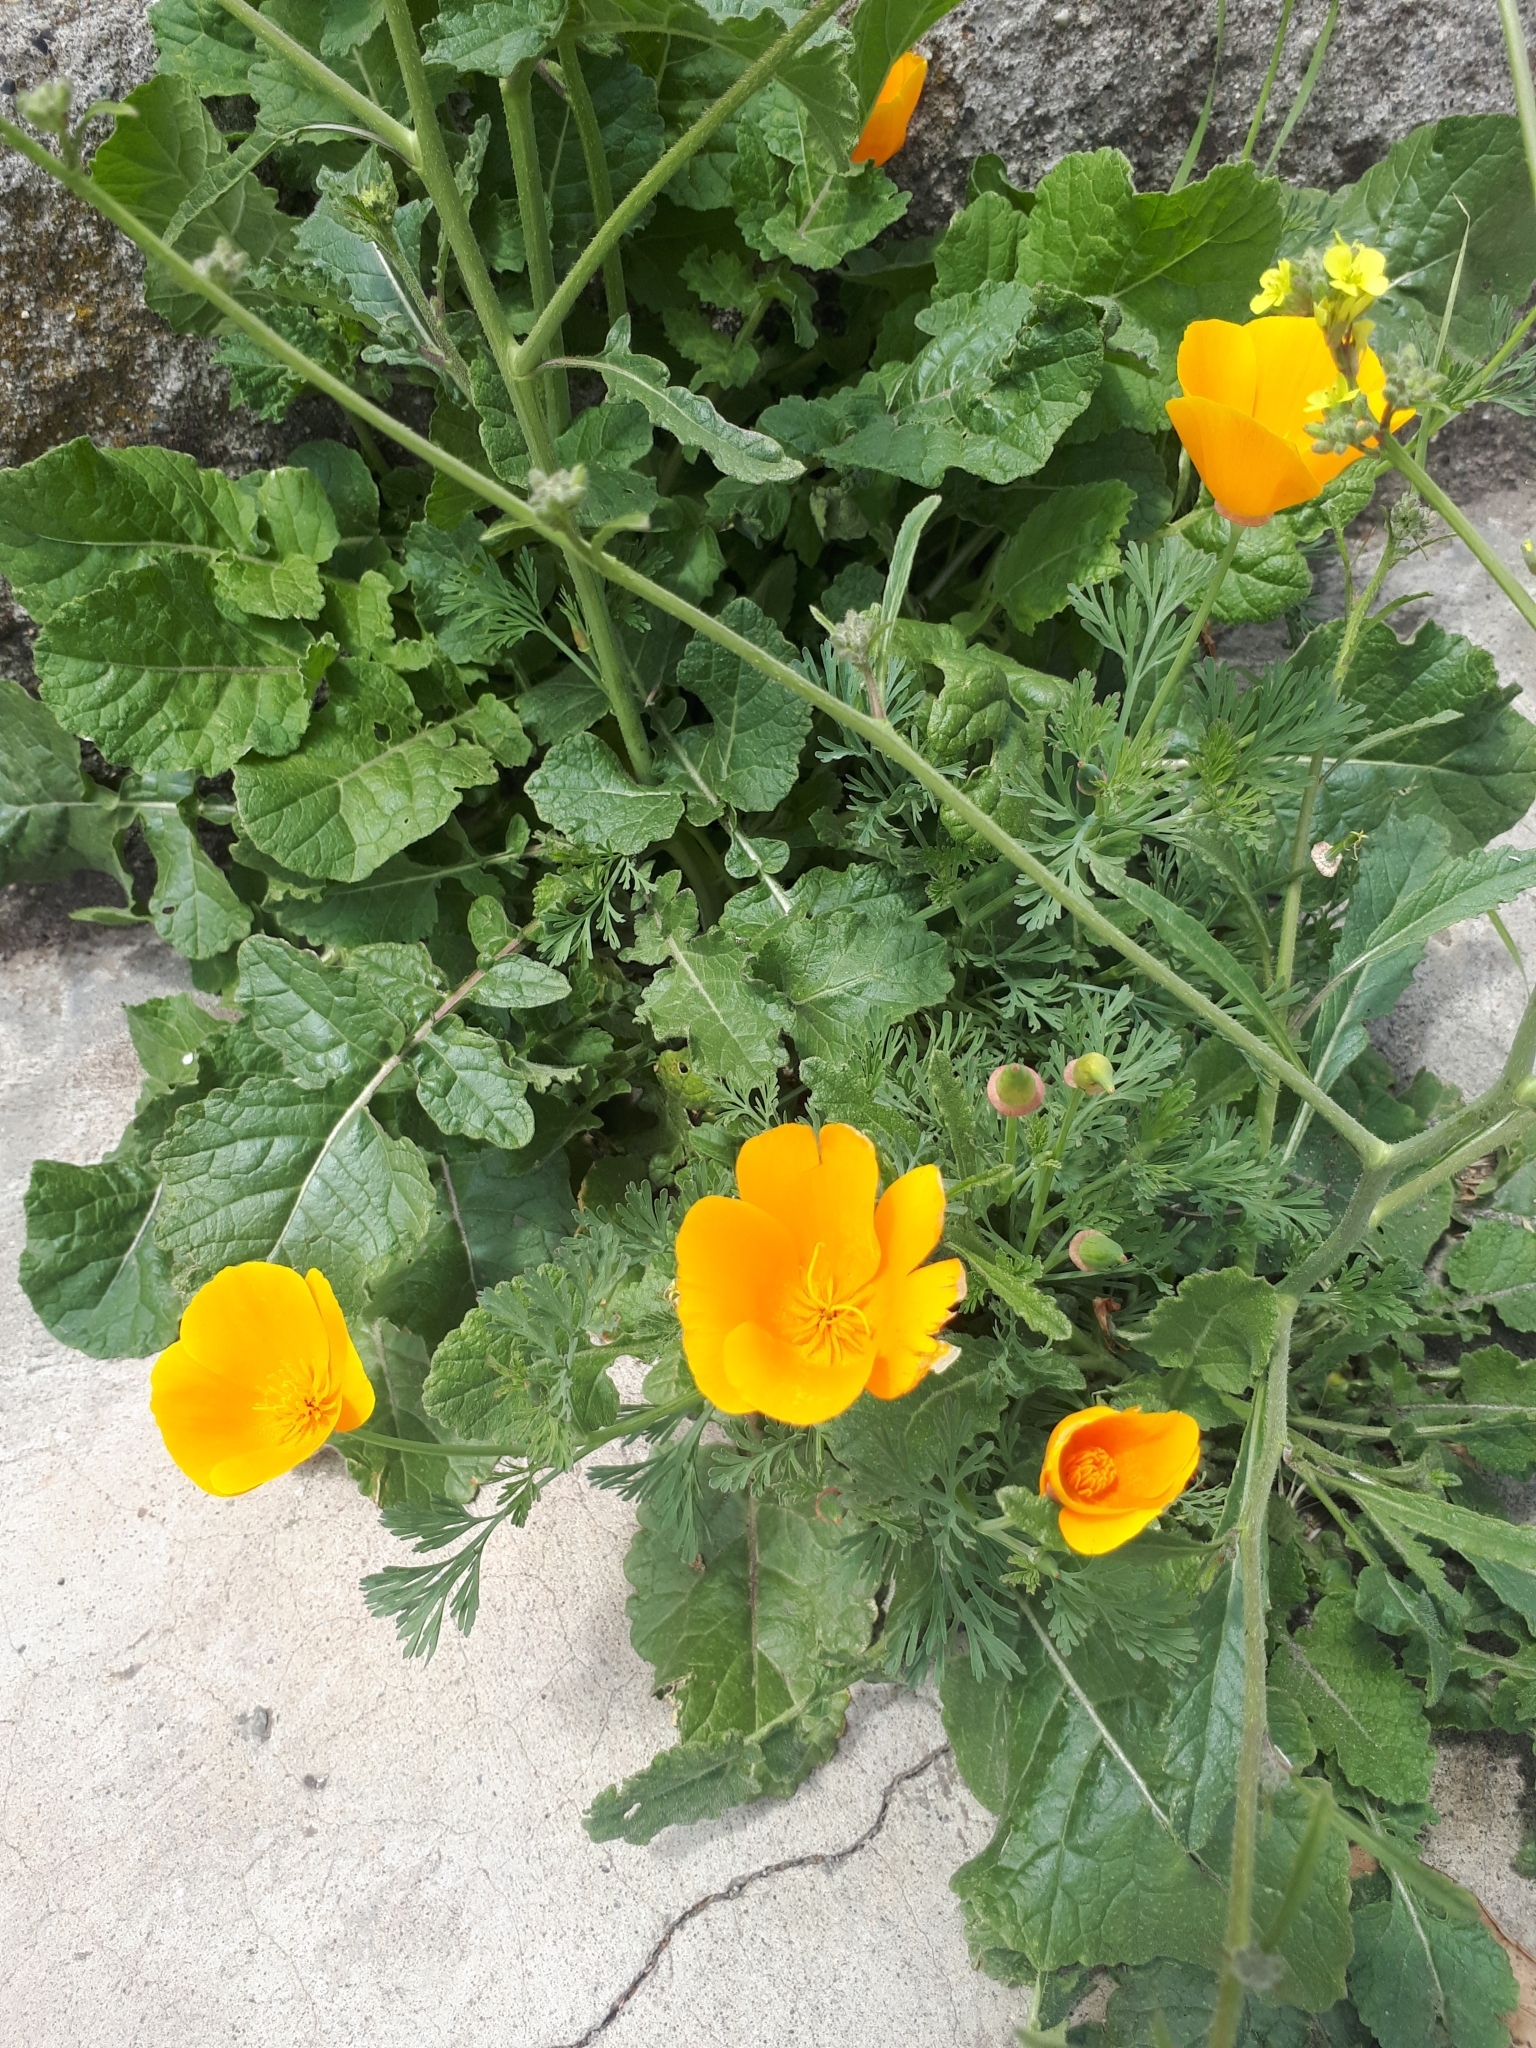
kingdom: Plantae
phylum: Tracheophyta
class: Magnoliopsida
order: Ranunculales
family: Papaveraceae
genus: Eschscholzia
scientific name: Eschscholzia californica
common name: California poppy
